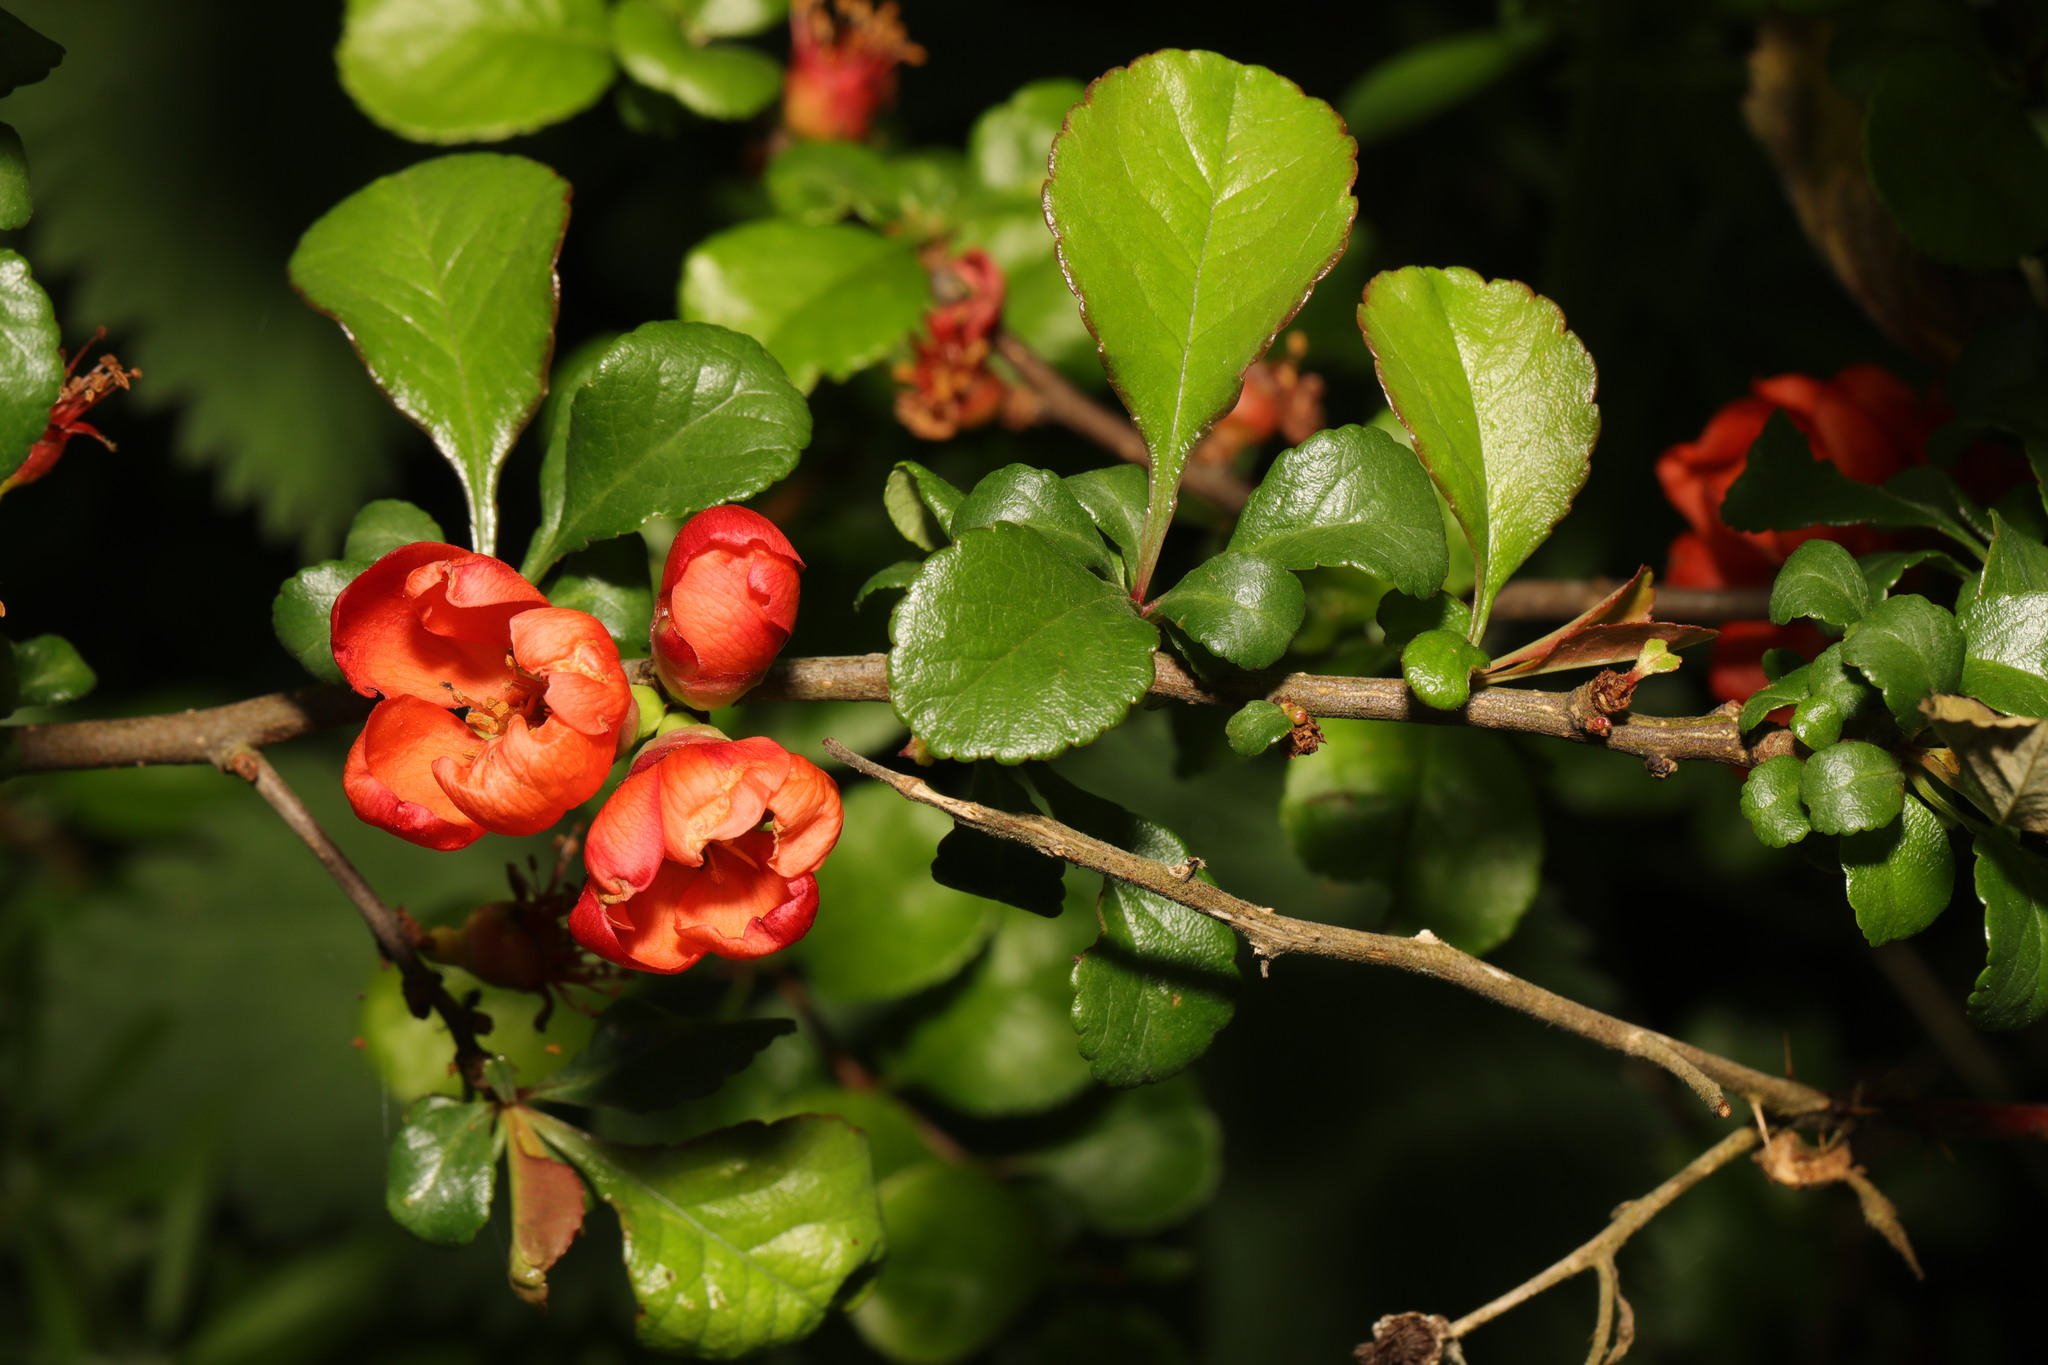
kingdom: Plantae
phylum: Tracheophyta
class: Magnoliopsida
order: Rosales
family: Rosaceae
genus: Chaenomeles
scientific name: Chaenomeles speciosa
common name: Japanese quince
